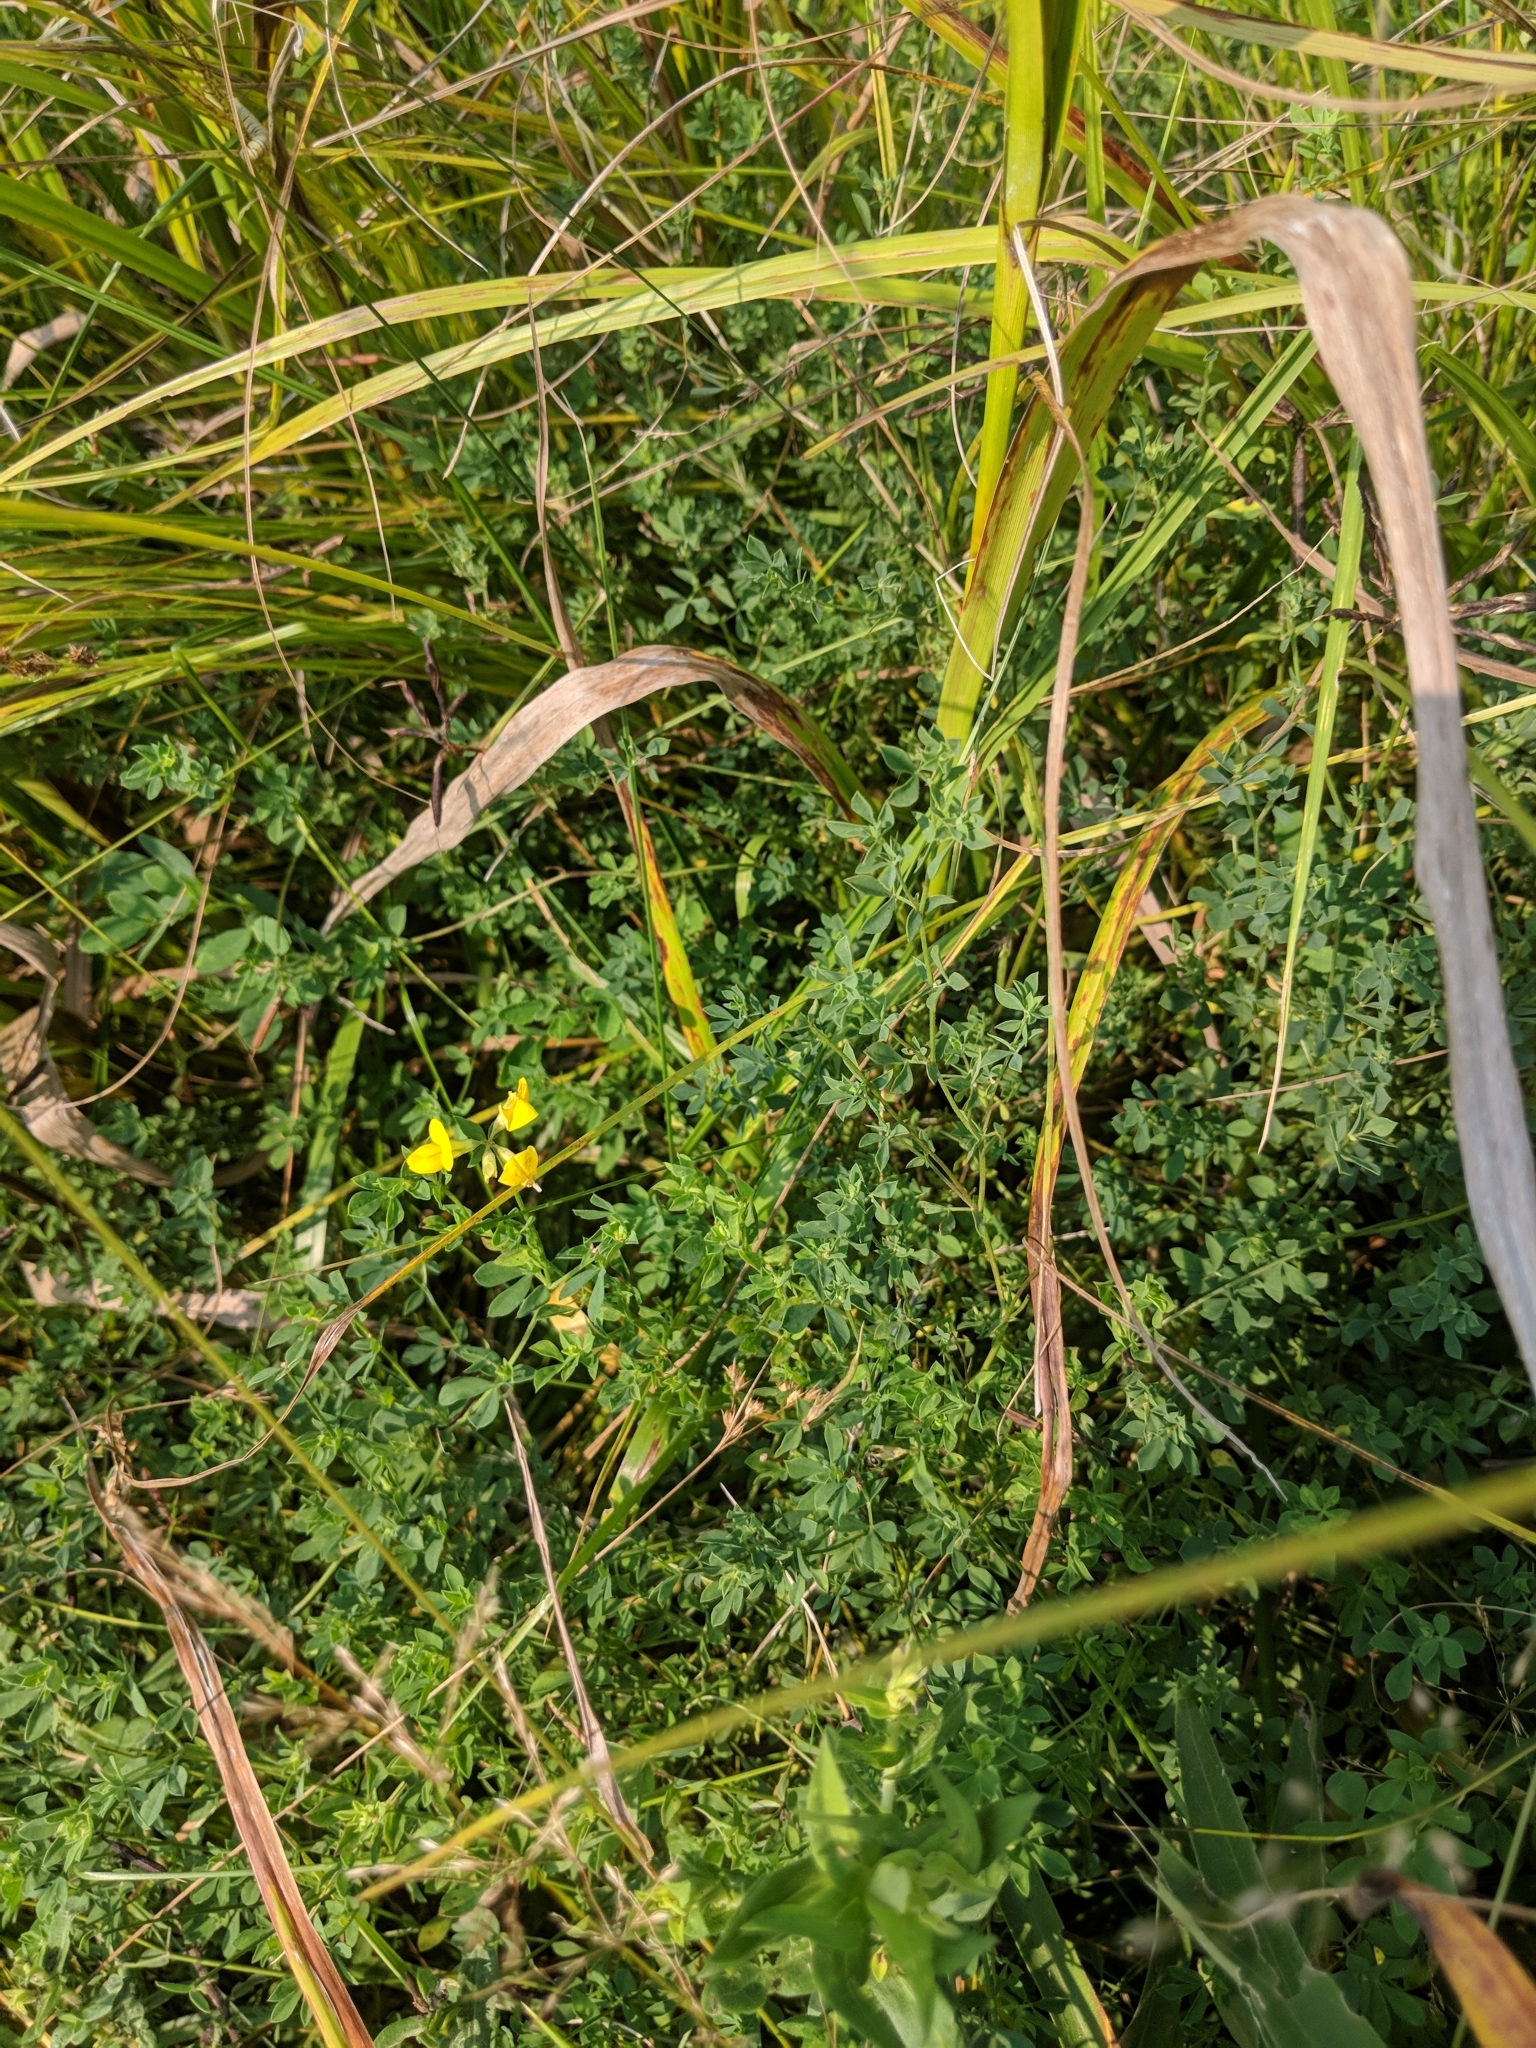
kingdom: Plantae
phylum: Tracheophyta
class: Magnoliopsida
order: Fabales
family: Fabaceae
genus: Lotus
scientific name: Lotus corniculatus
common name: Common bird's-foot-trefoil
